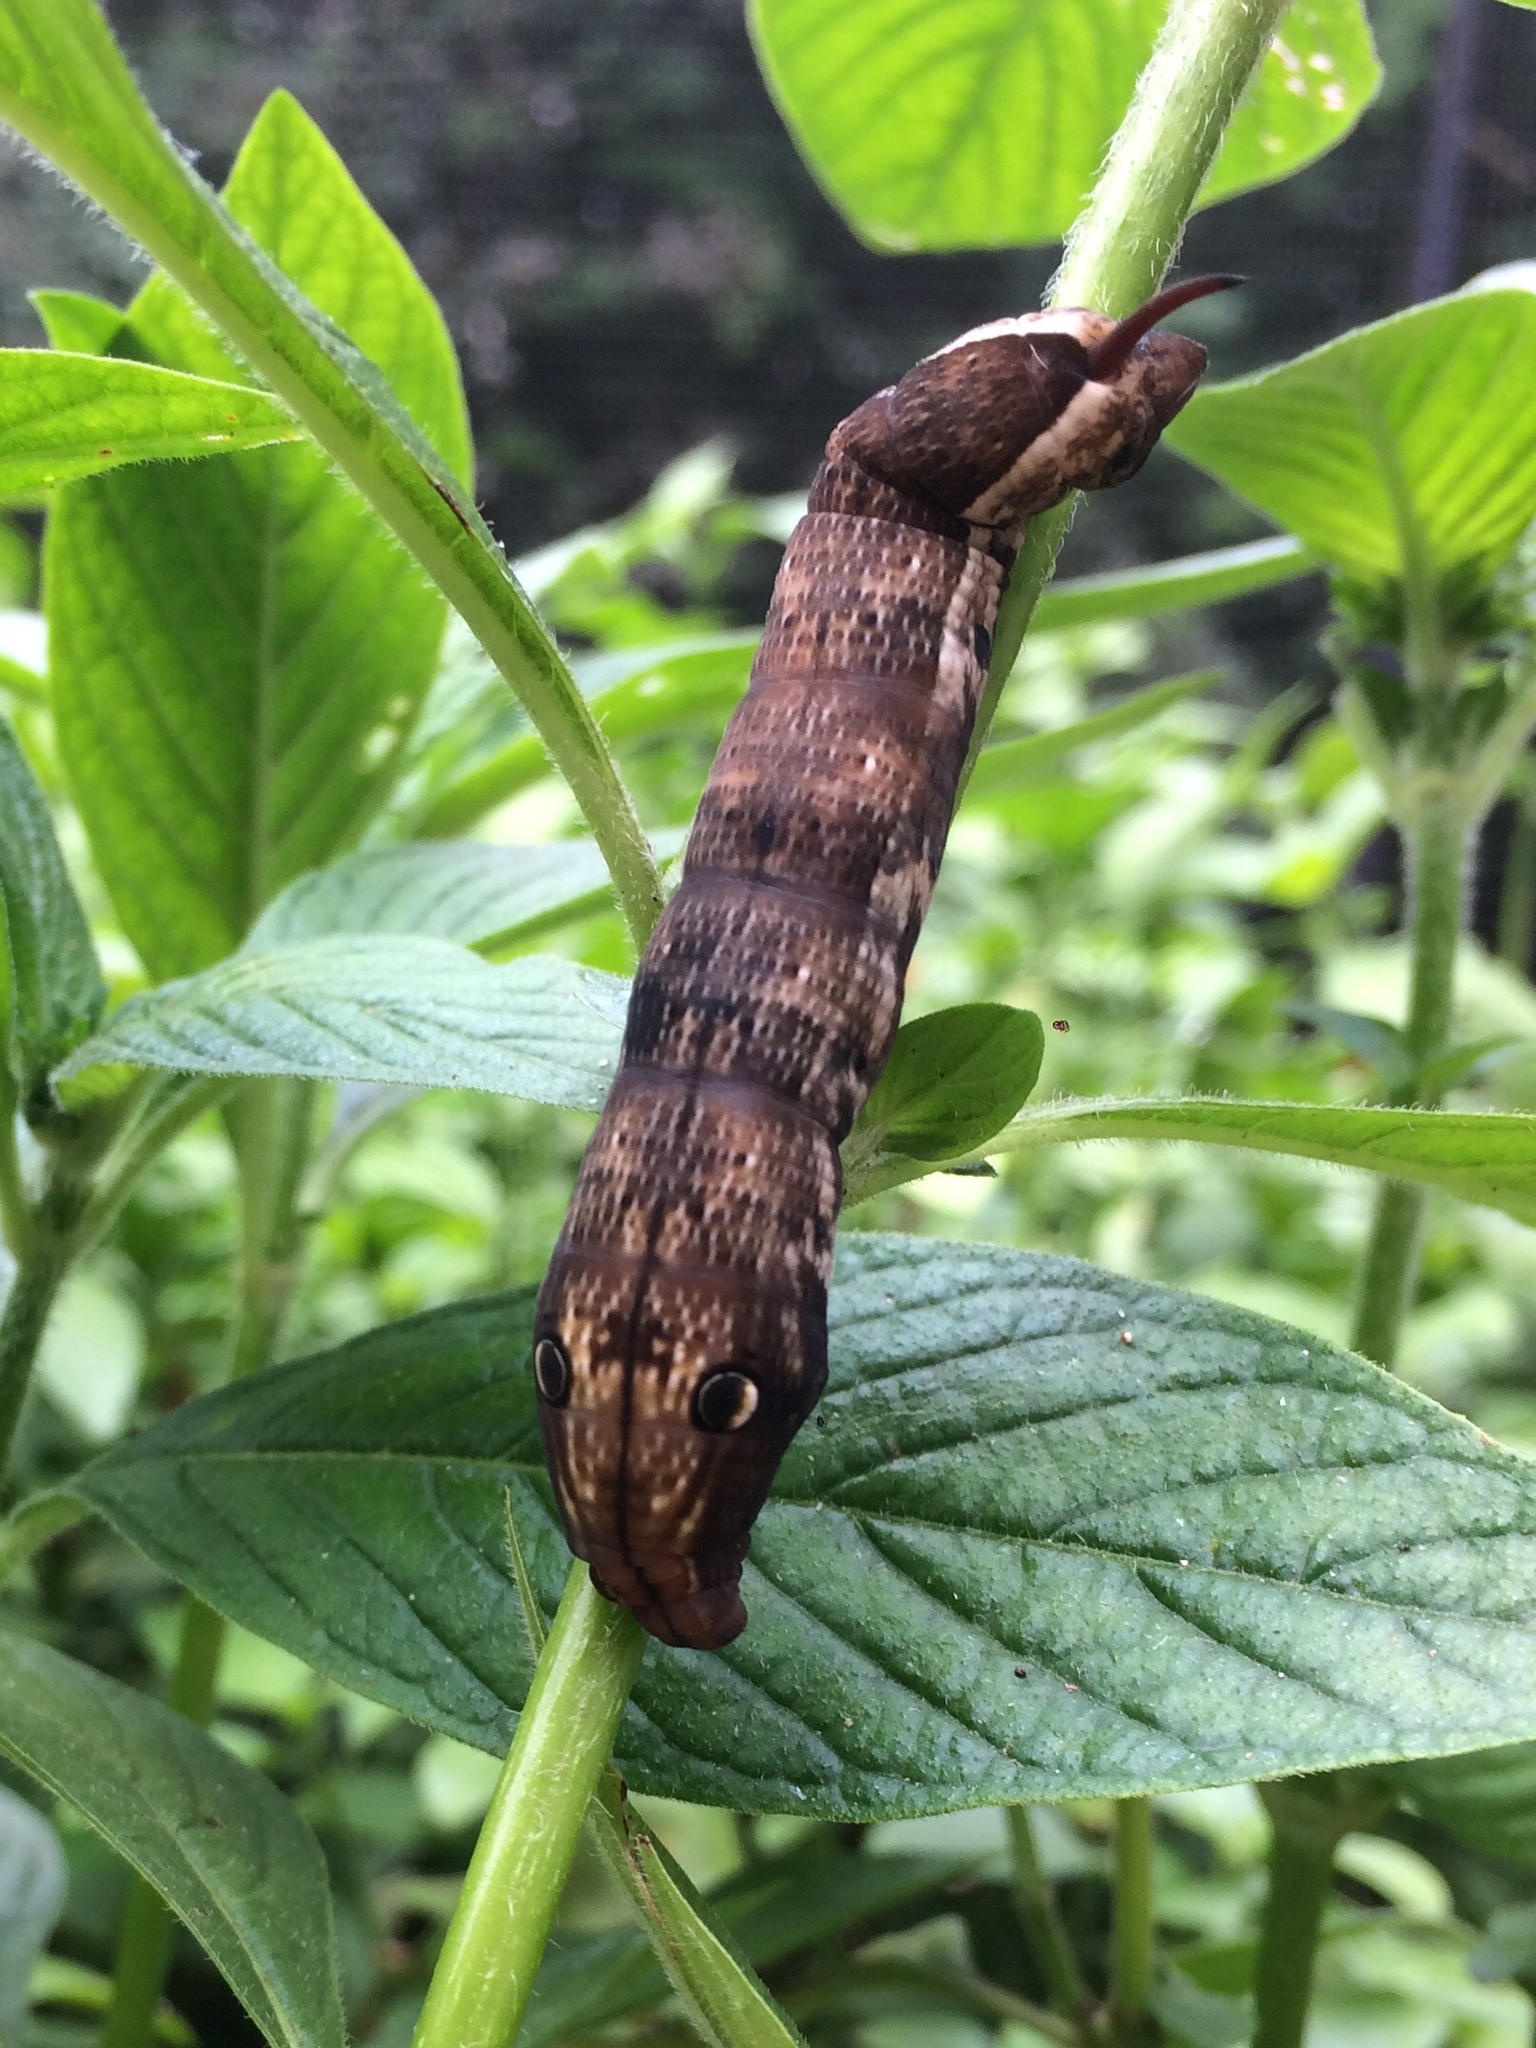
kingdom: Animalia
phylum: Arthropoda
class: Insecta
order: Lepidoptera
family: Sphingidae
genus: Xylophanes
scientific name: Xylophanes pluto
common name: Pluto sphinx
